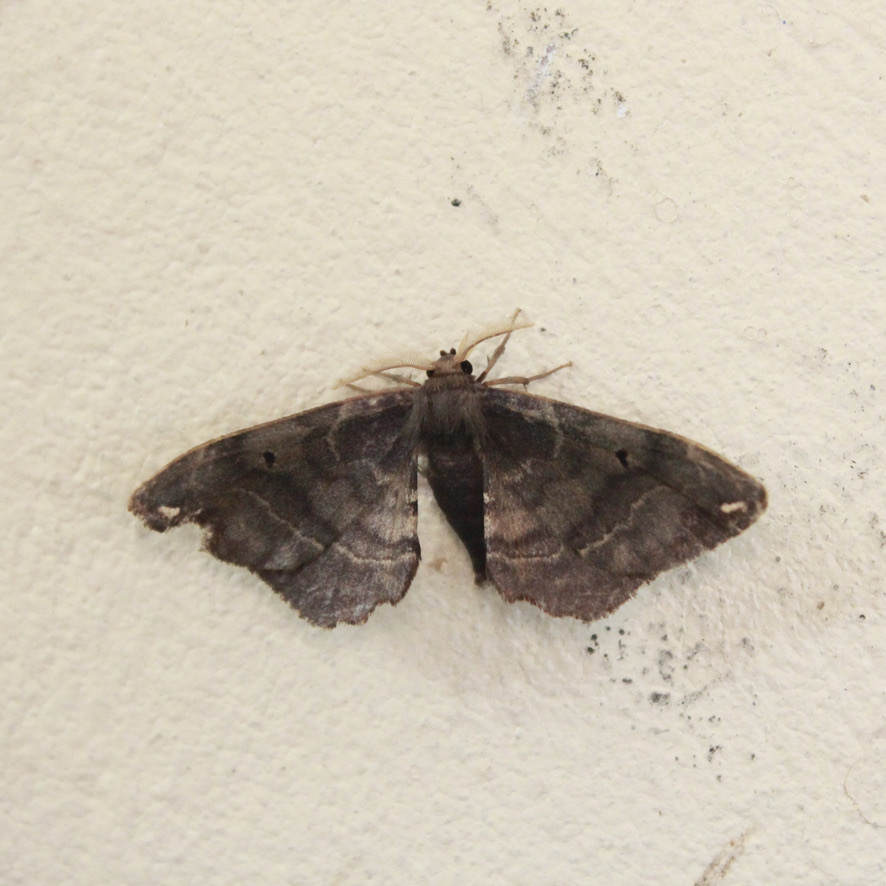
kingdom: Animalia
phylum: Arthropoda
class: Insecta
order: Lepidoptera
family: Phiditiidae
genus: Phiditia
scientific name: Phiditia cuprea
